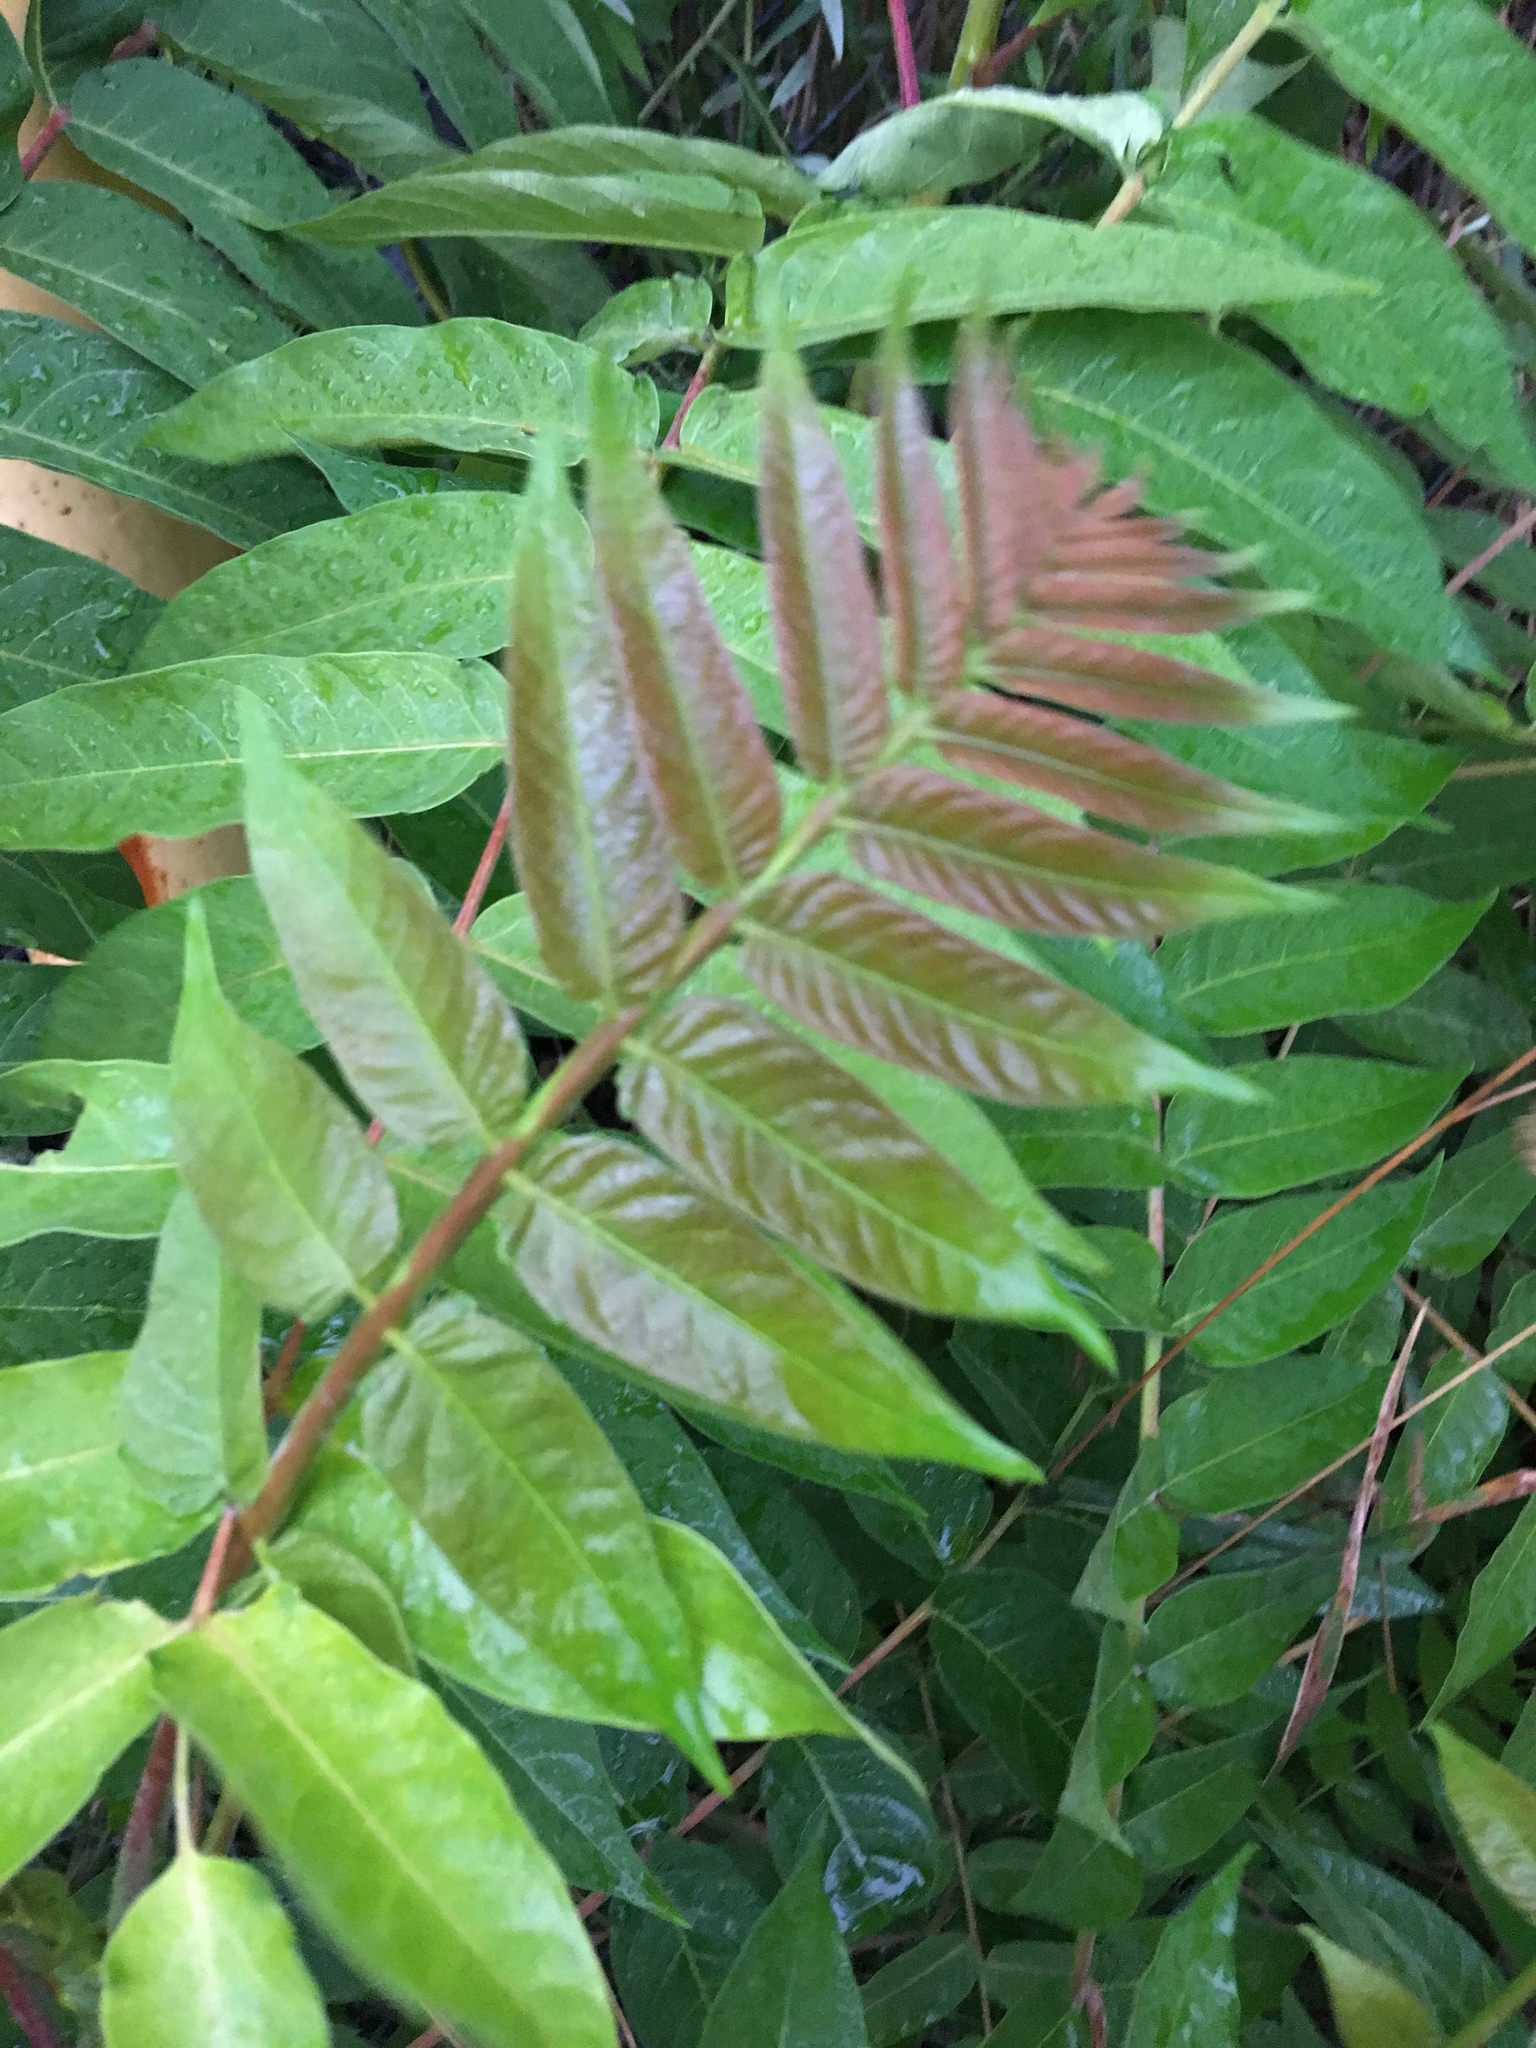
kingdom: Plantae
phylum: Tracheophyta
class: Magnoliopsida
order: Sapindales
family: Simaroubaceae
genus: Ailanthus
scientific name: Ailanthus altissima
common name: Tree-of-heaven
